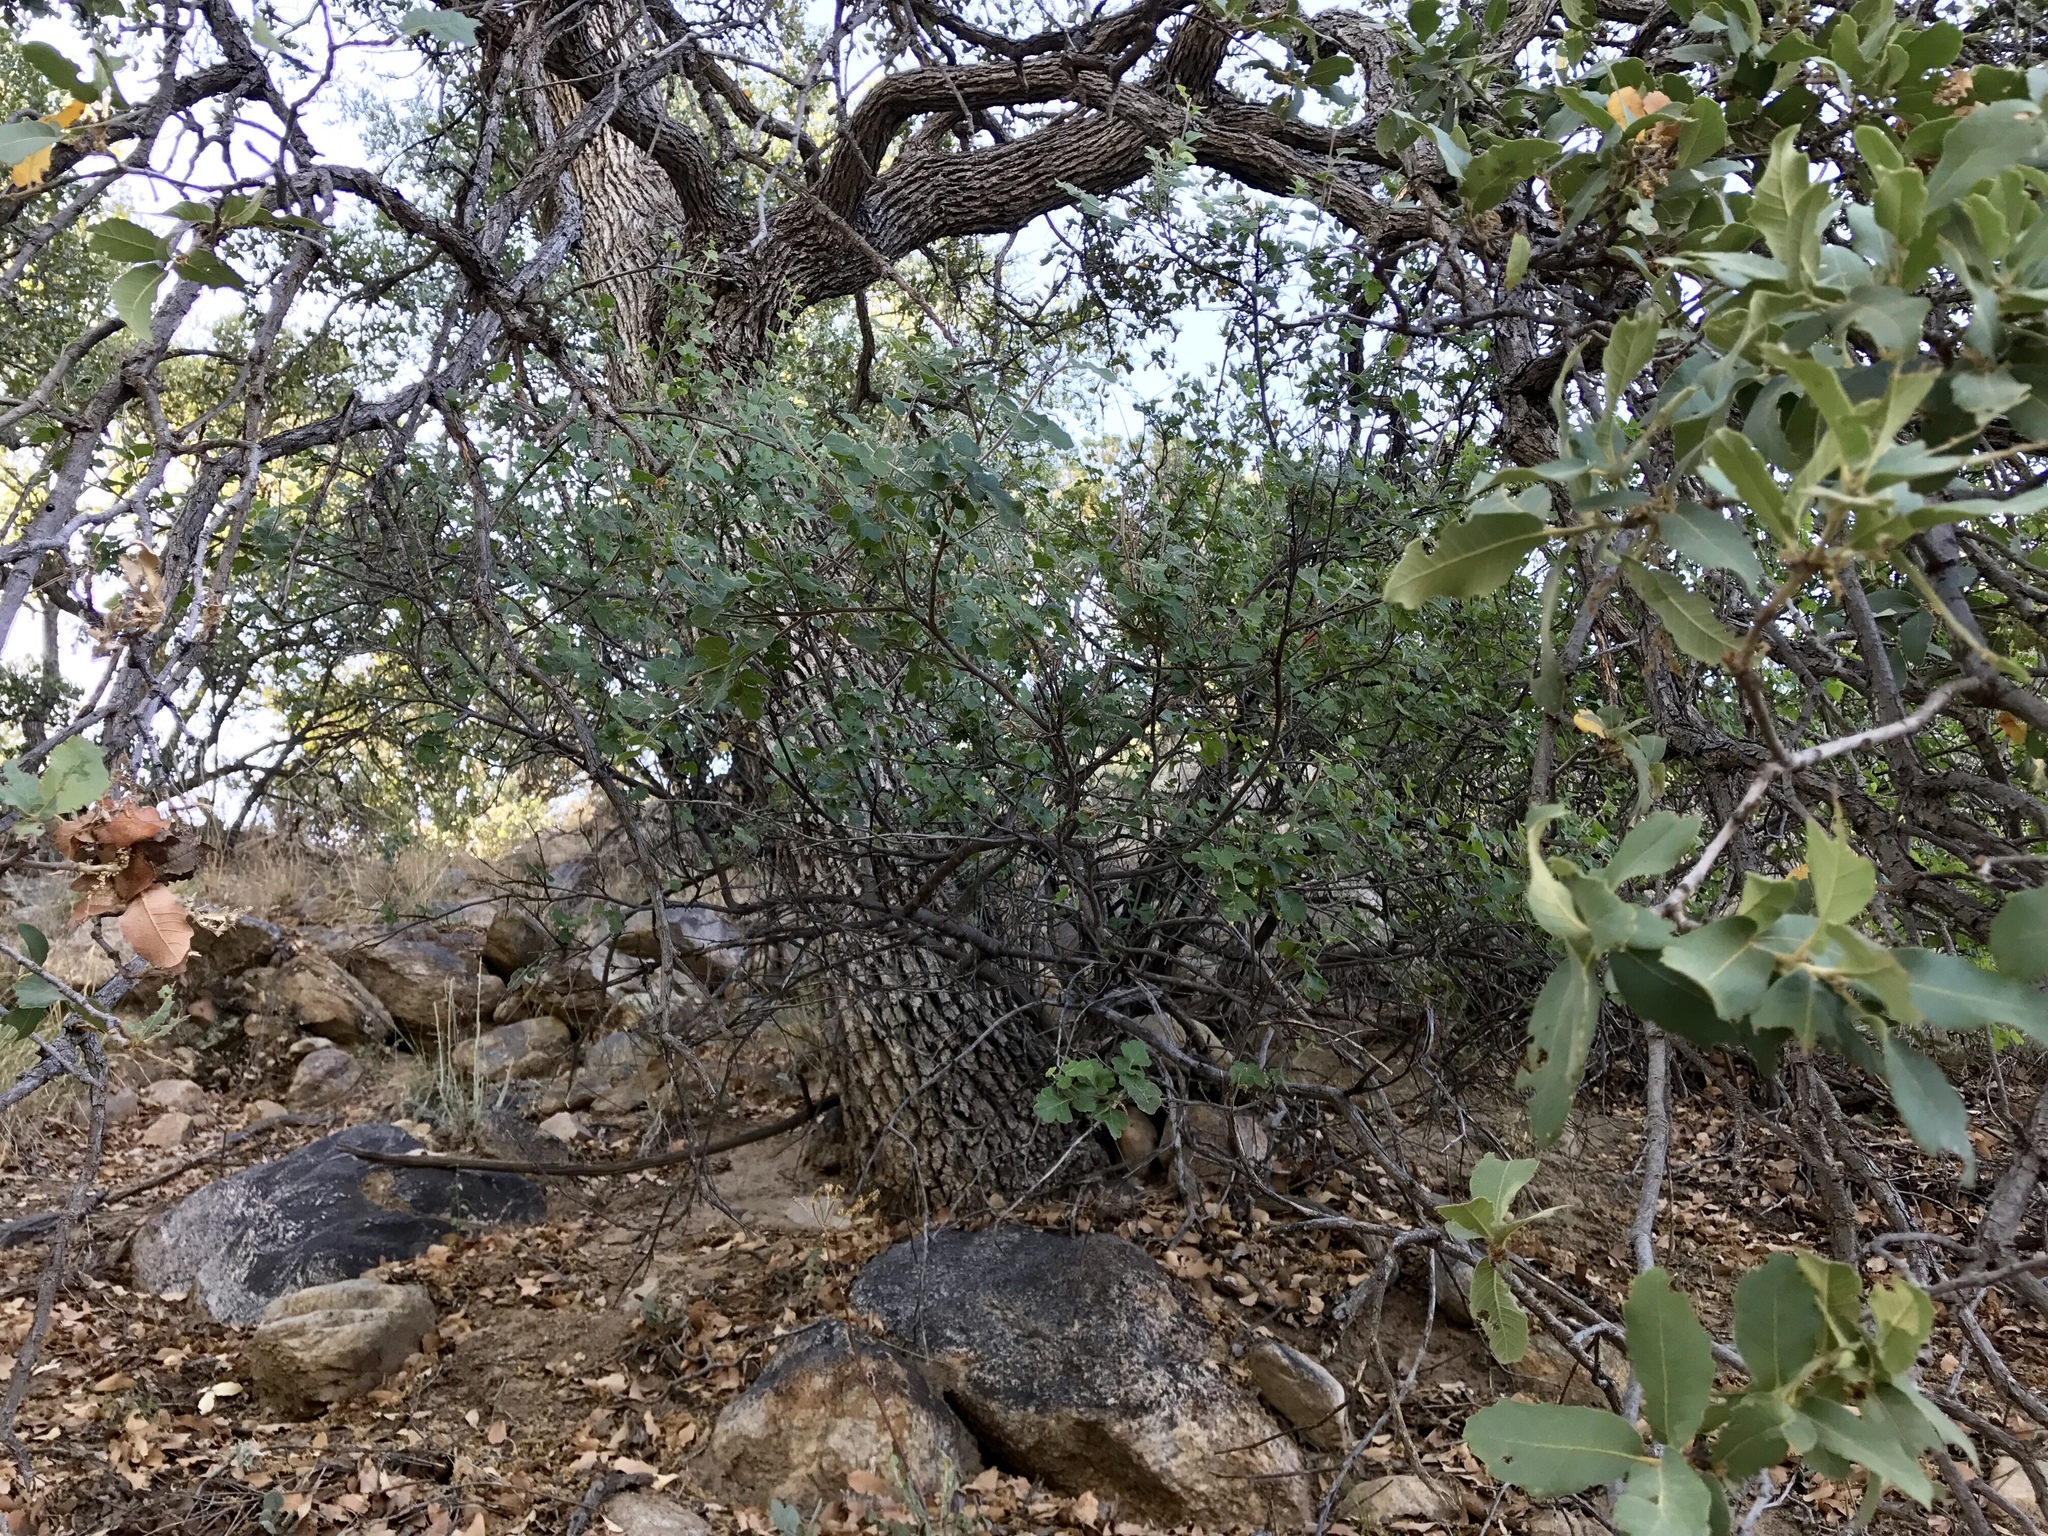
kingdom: Plantae
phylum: Tracheophyta
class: Magnoliopsida
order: Fagales
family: Fagaceae
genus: Quercus
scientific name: Quercus arizonica
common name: Arizona white oak
